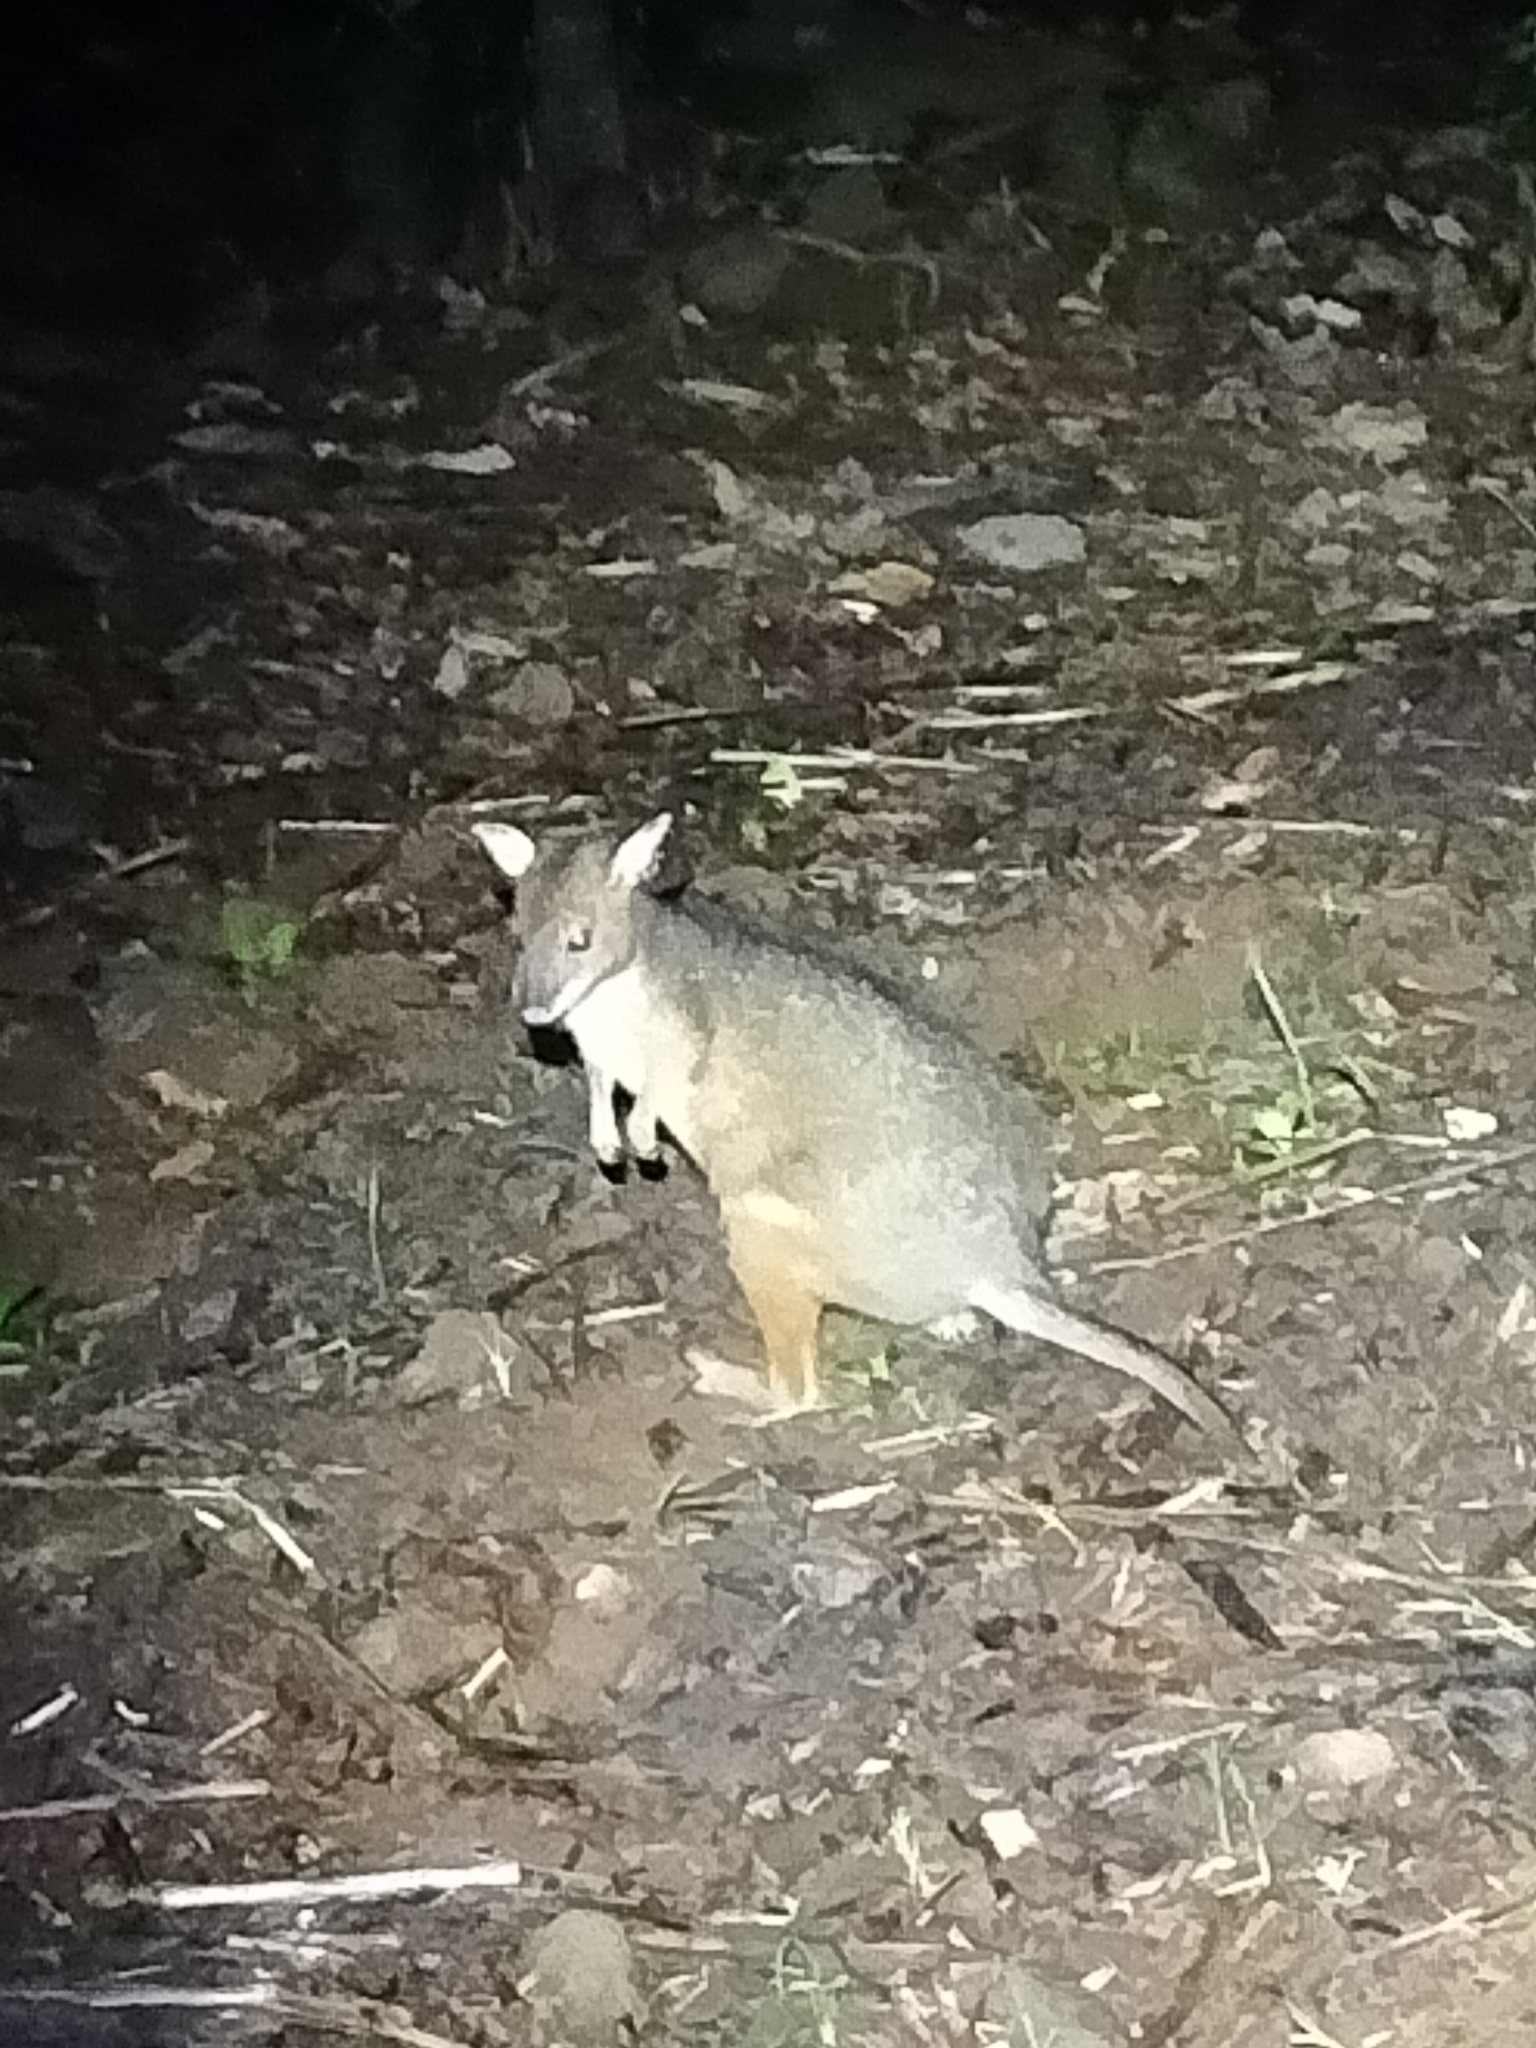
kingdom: Animalia
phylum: Chordata
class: Mammalia
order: Diprotodontia
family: Macropodidae
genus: Thylogale
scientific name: Thylogale stigmatica
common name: Red-legged pademelon
